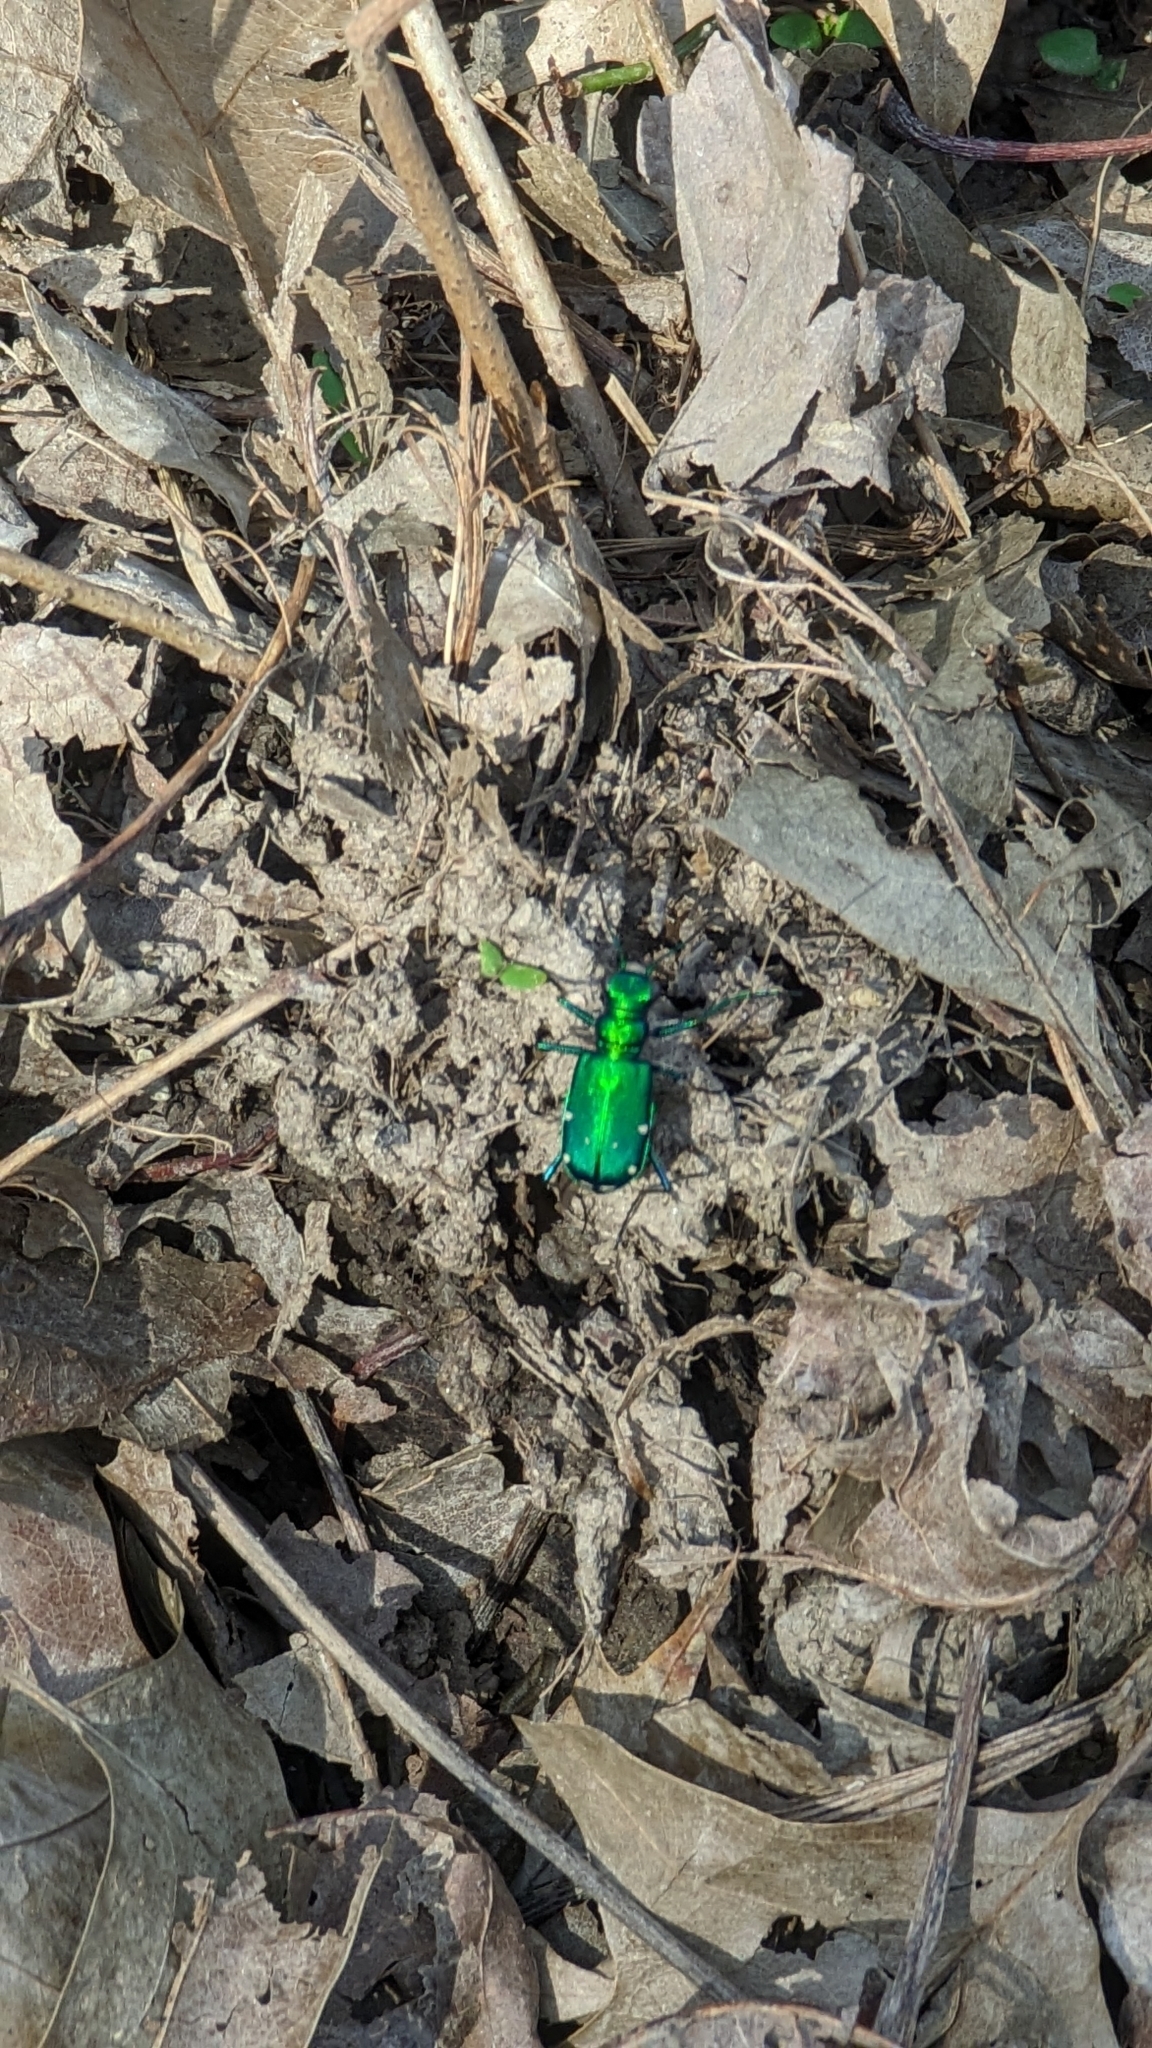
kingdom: Animalia
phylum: Arthropoda
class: Insecta
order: Coleoptera
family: Carabidae
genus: Cicindela
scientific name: Cicindela sexguttata
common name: Six-spotted tiger beetle
